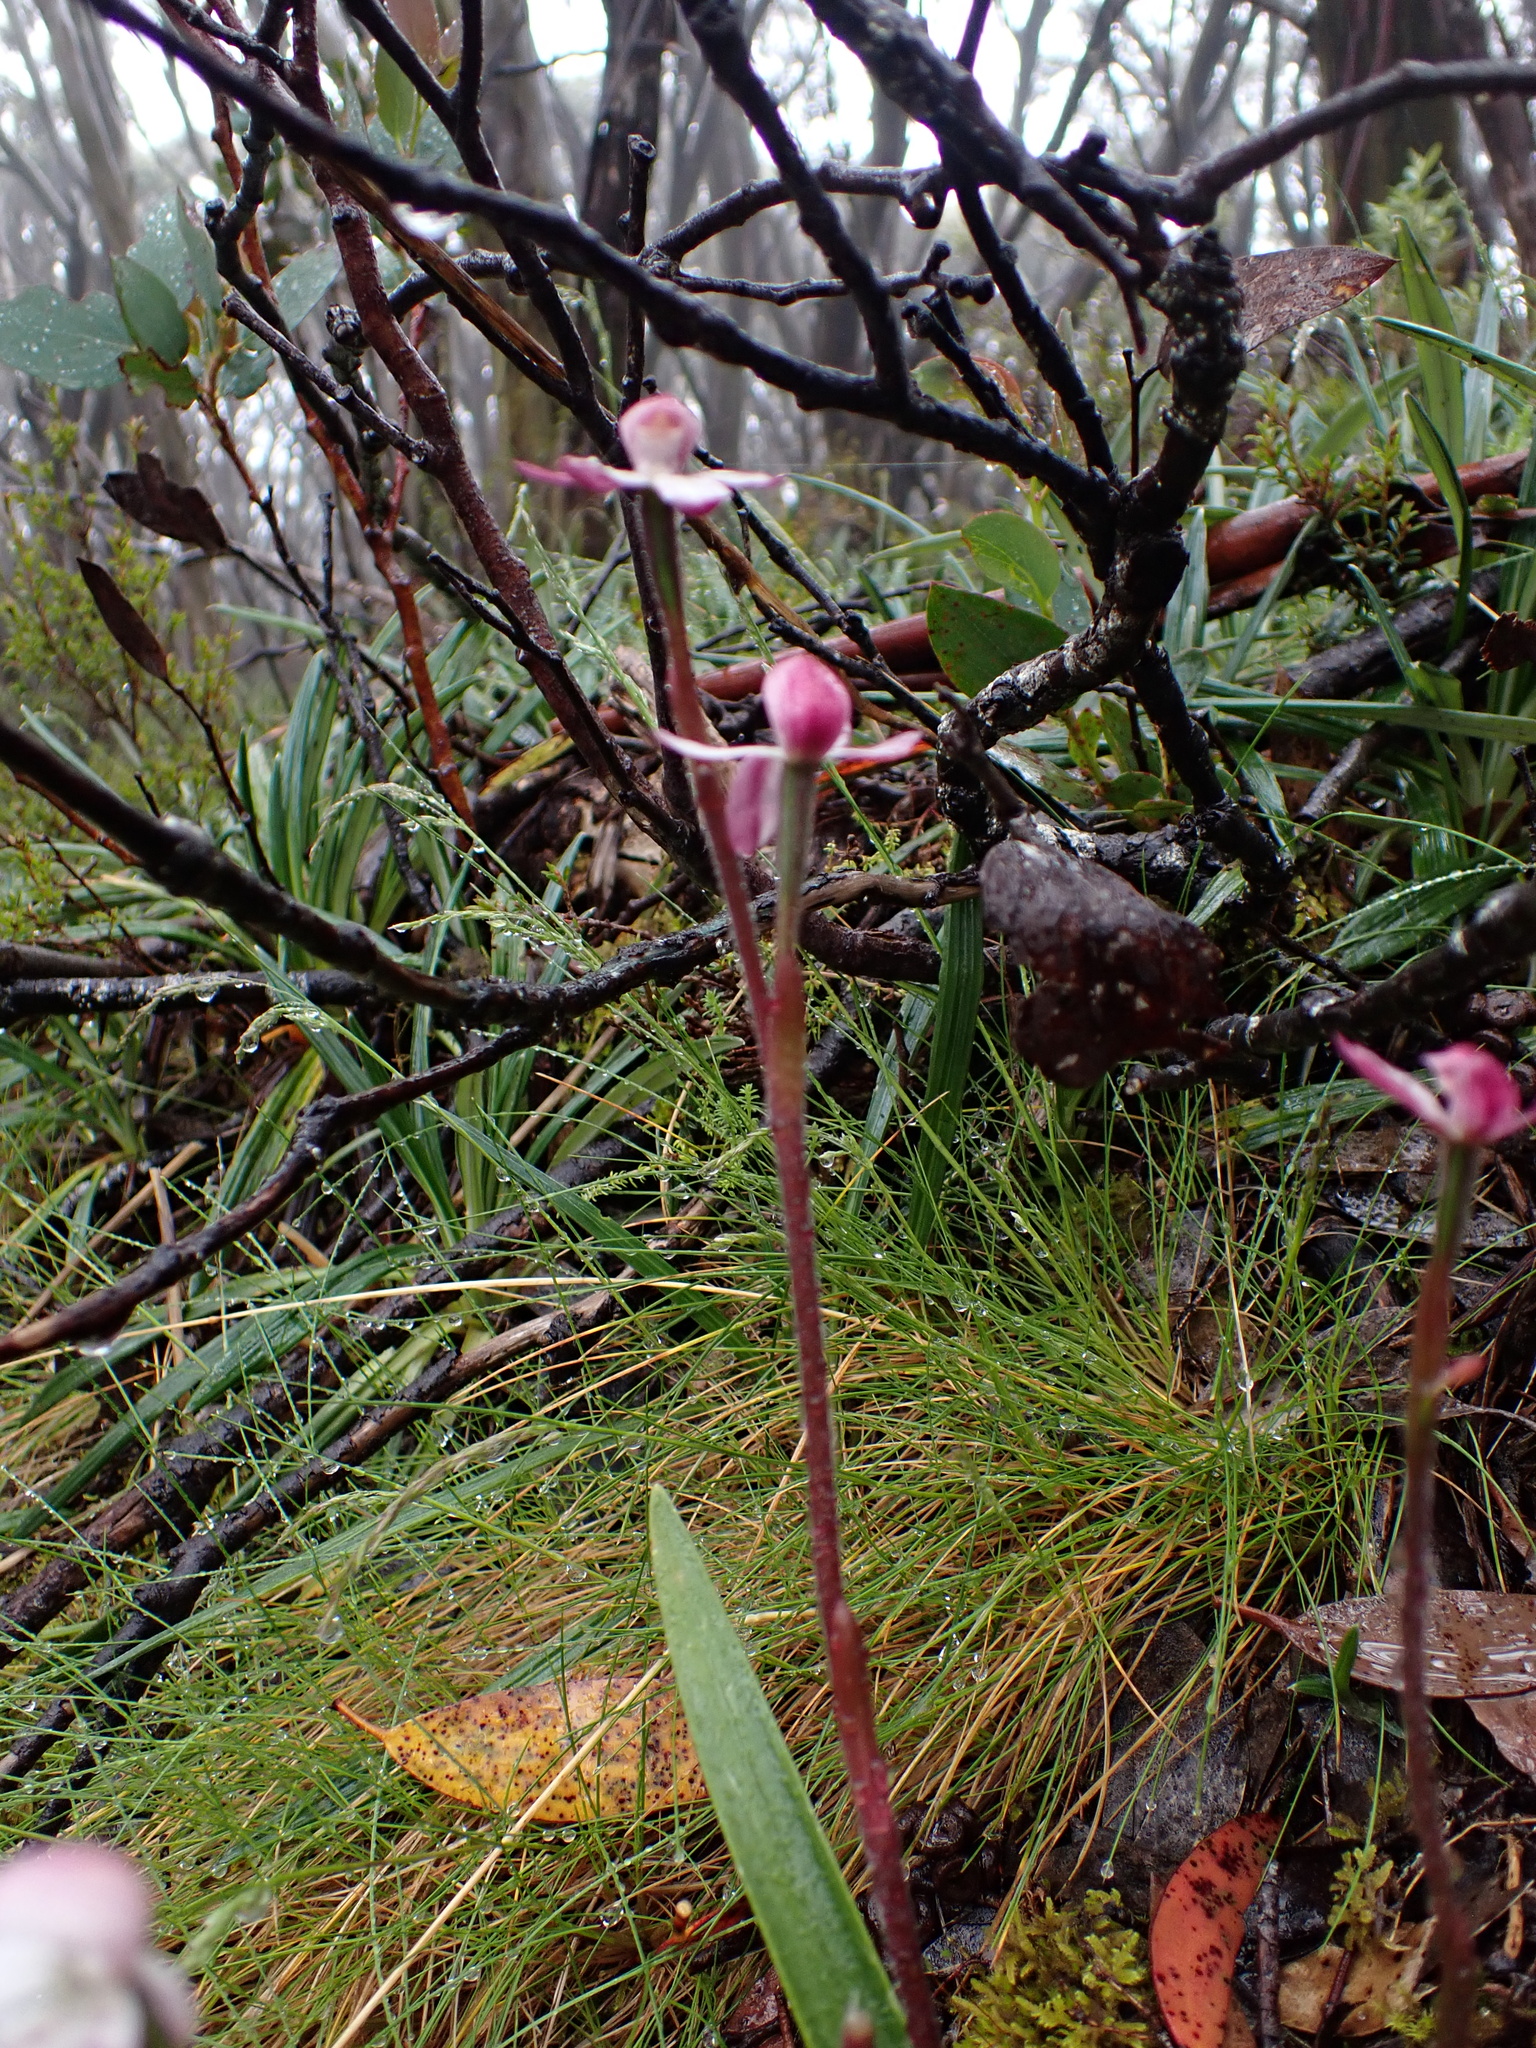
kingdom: Plantae
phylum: Tracheophyta
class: Liliopsida
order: Asparagales
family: Orchidaceae
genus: Caladenia
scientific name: Caladenia alpina
